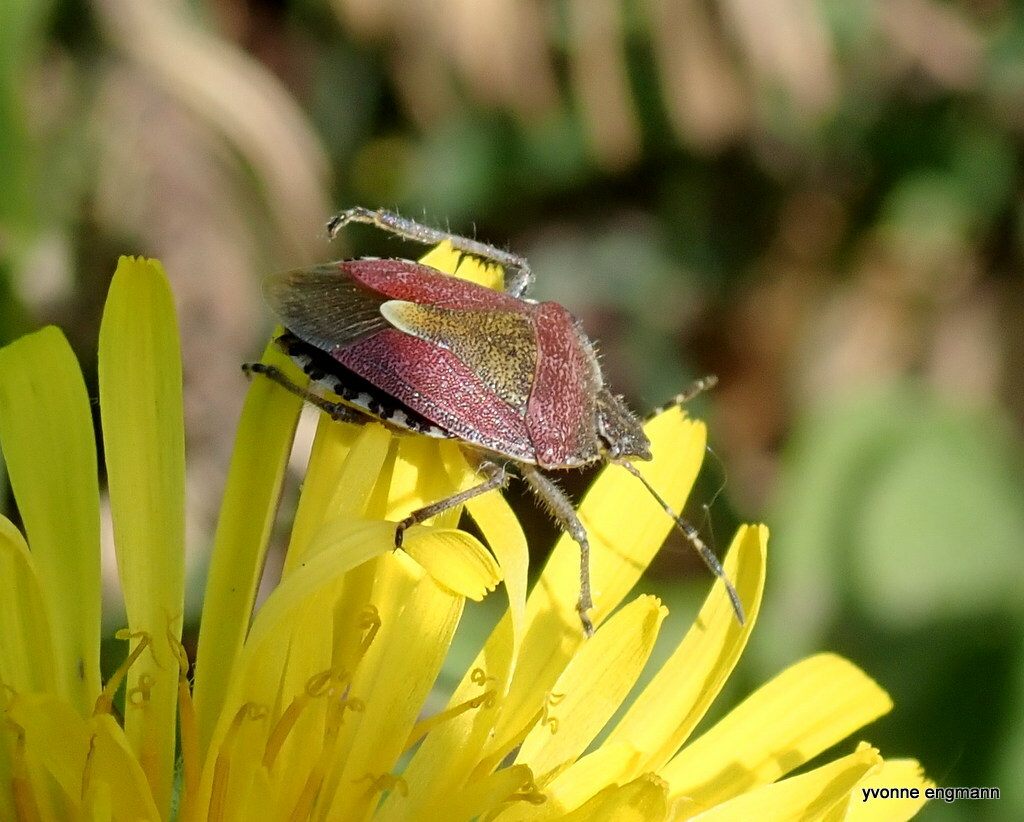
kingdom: Animalia
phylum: Arthropoda
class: Insecta
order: Hemiptera
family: Pentatomidae
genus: Dolycoris
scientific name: Dolycoris baccarum
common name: Sloe bug
